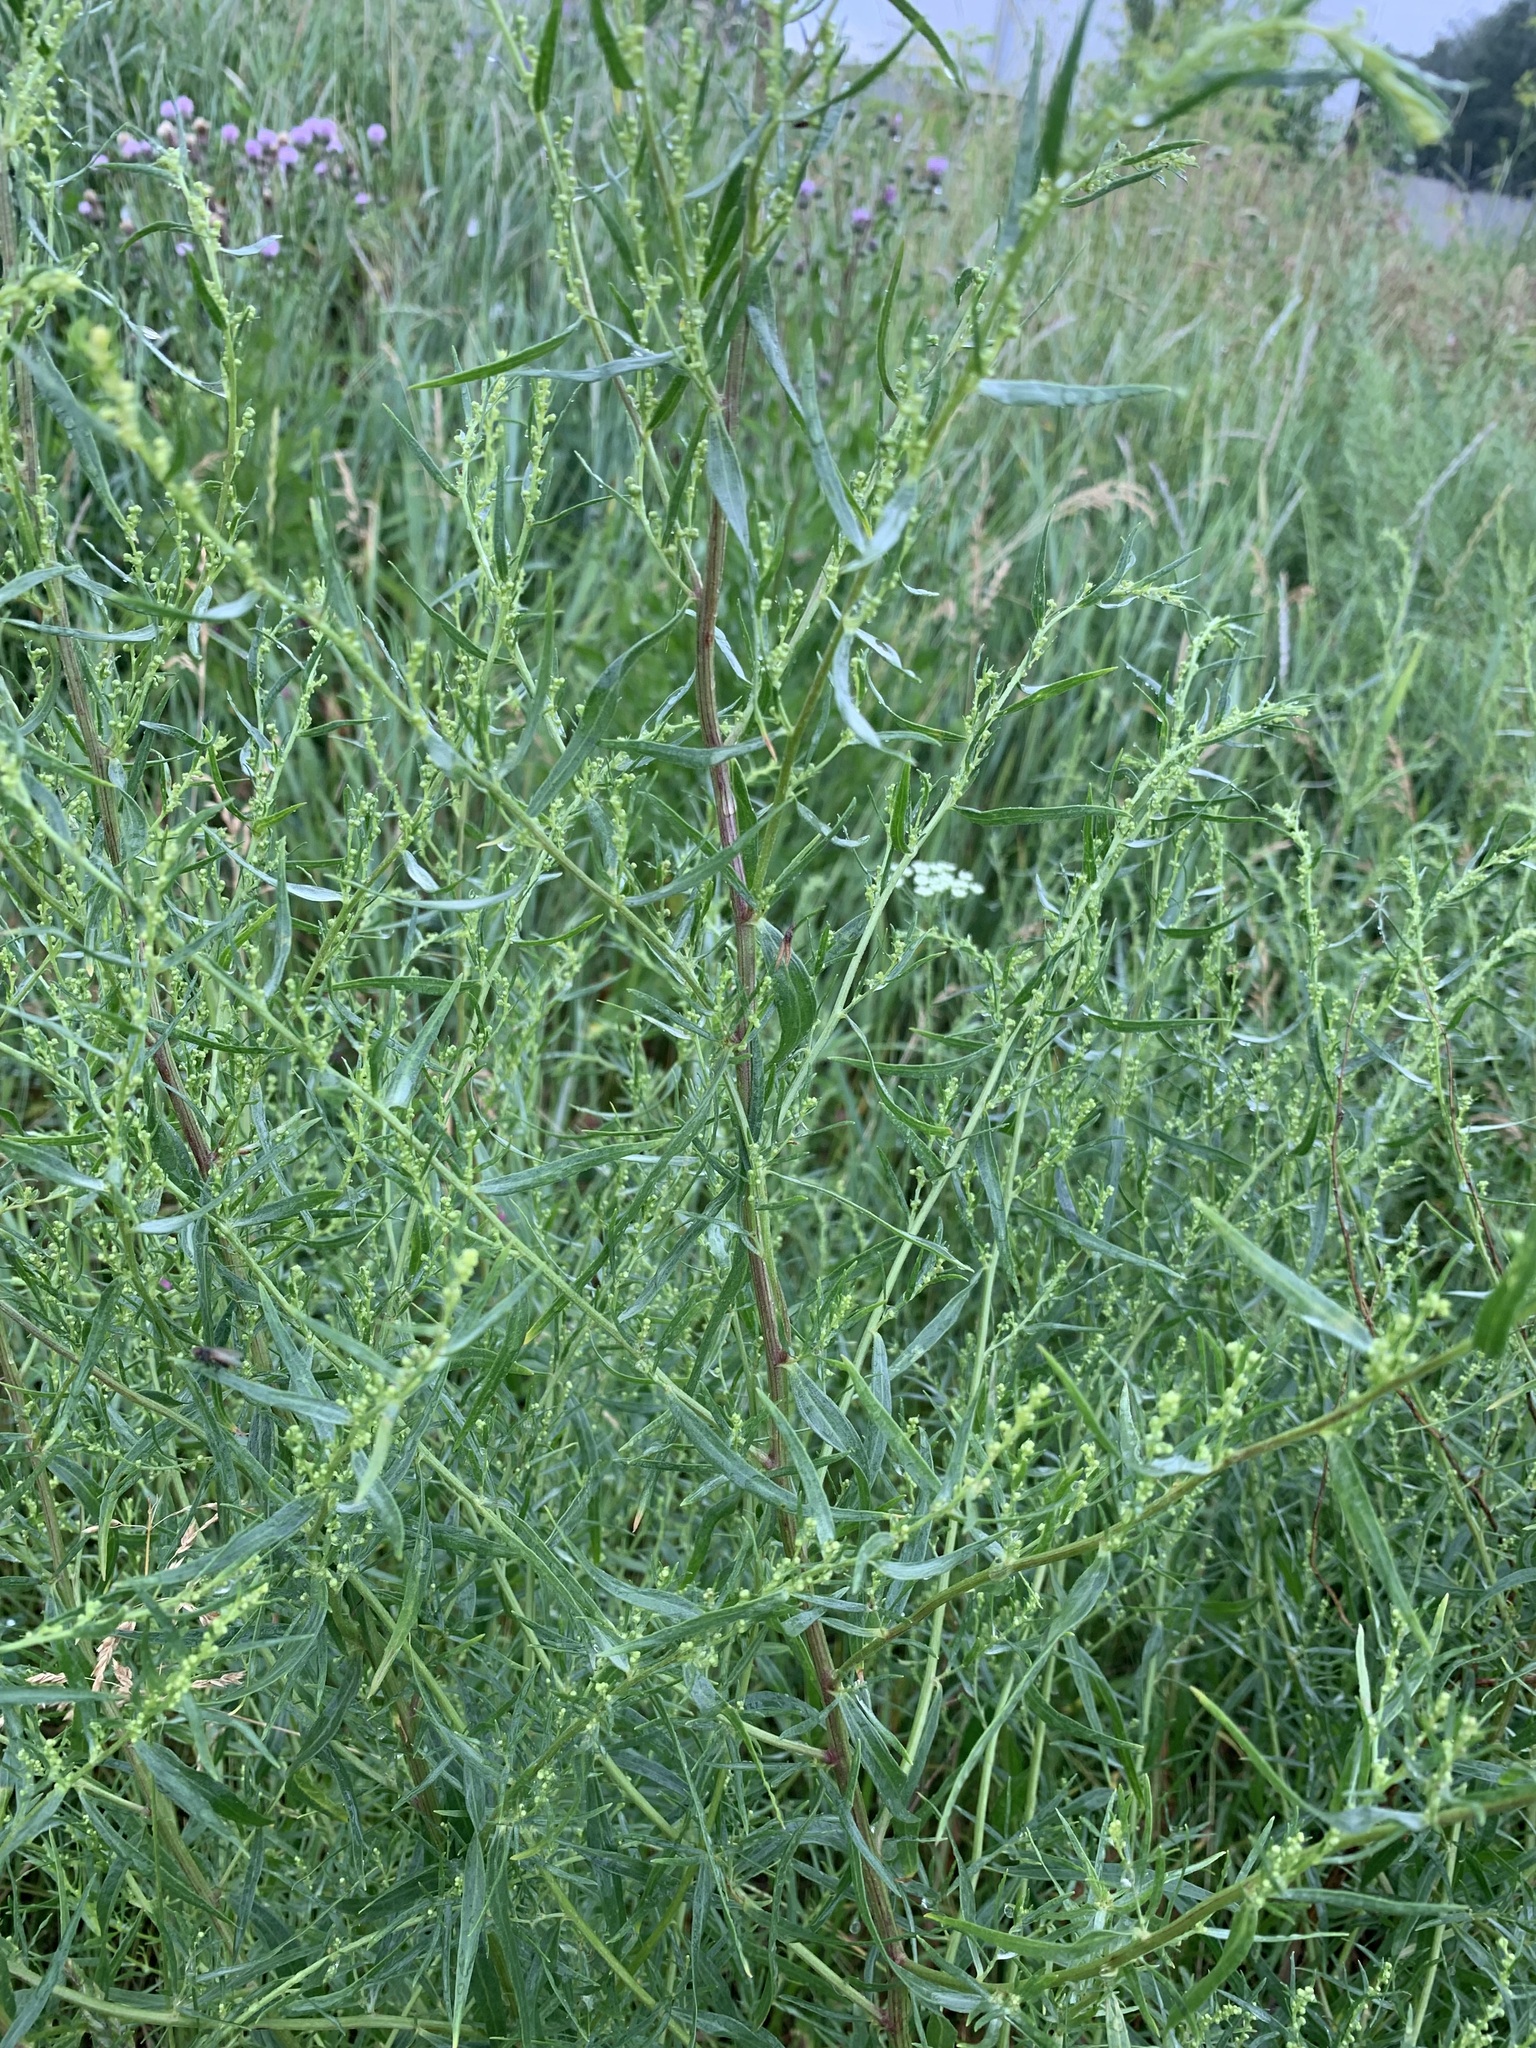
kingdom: Plantae
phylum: Tracheophyta
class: Magnoliopsida
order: Asterales
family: Asteraceae
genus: Artemisia
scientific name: Artemisia dracunculus
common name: Tarragon
